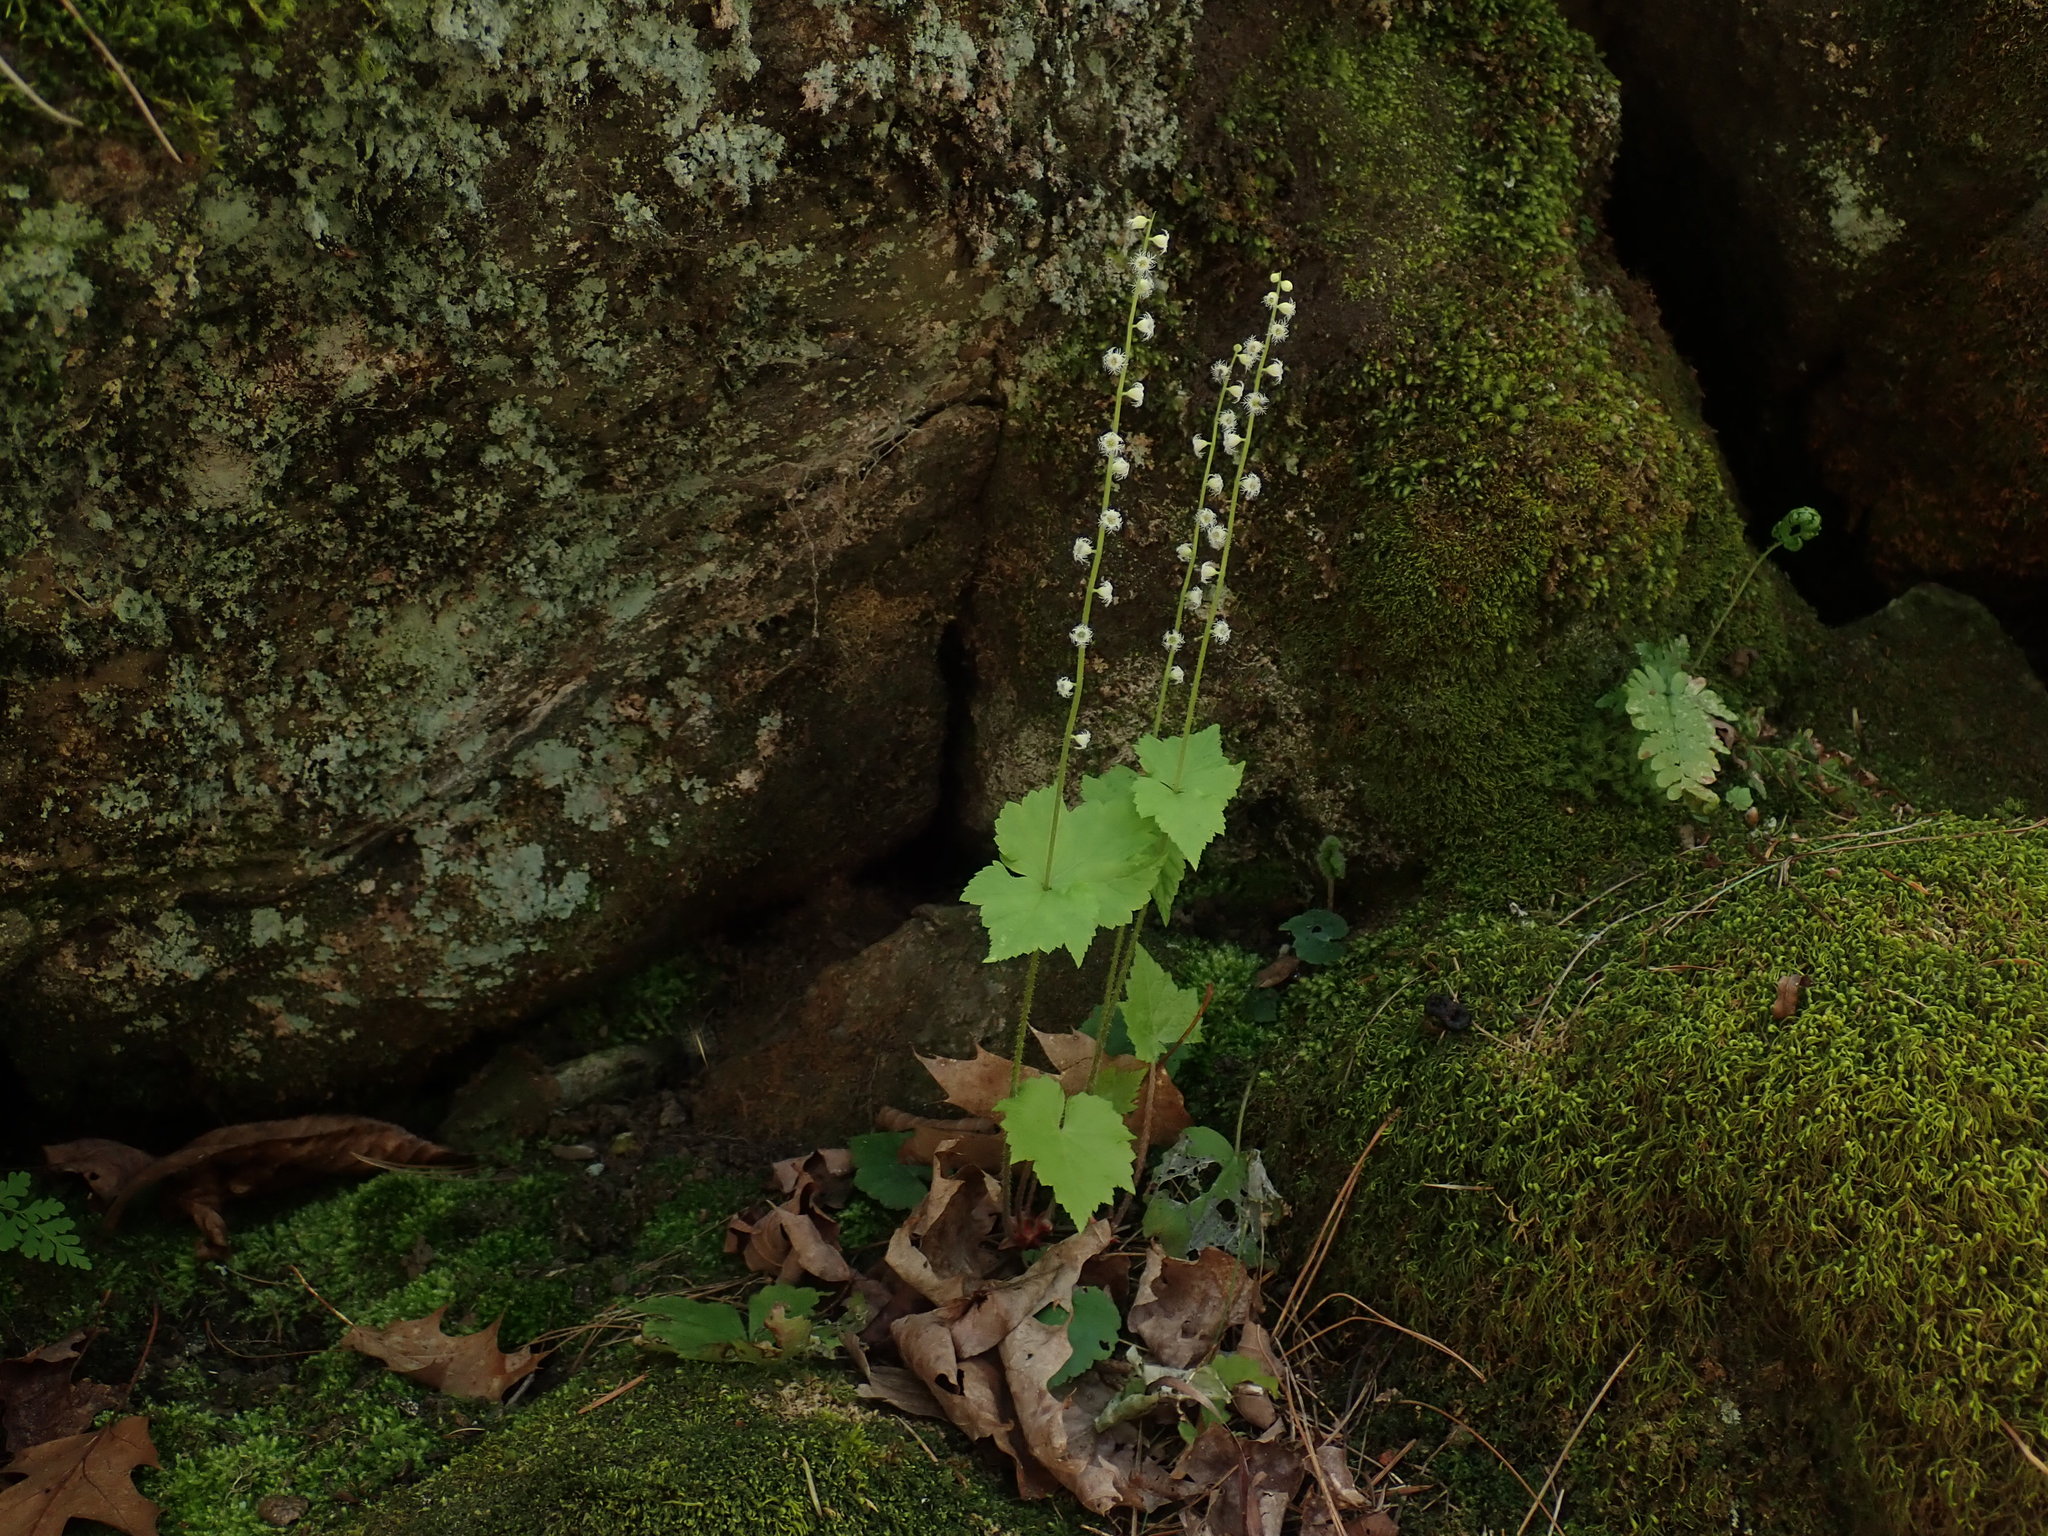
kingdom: Plantae
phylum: Tracheophyta
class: Magnoliopsida
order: Saxifragales
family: Saxifragaceae
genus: Mitella
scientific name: Mitella diphylla
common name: Coolwort
